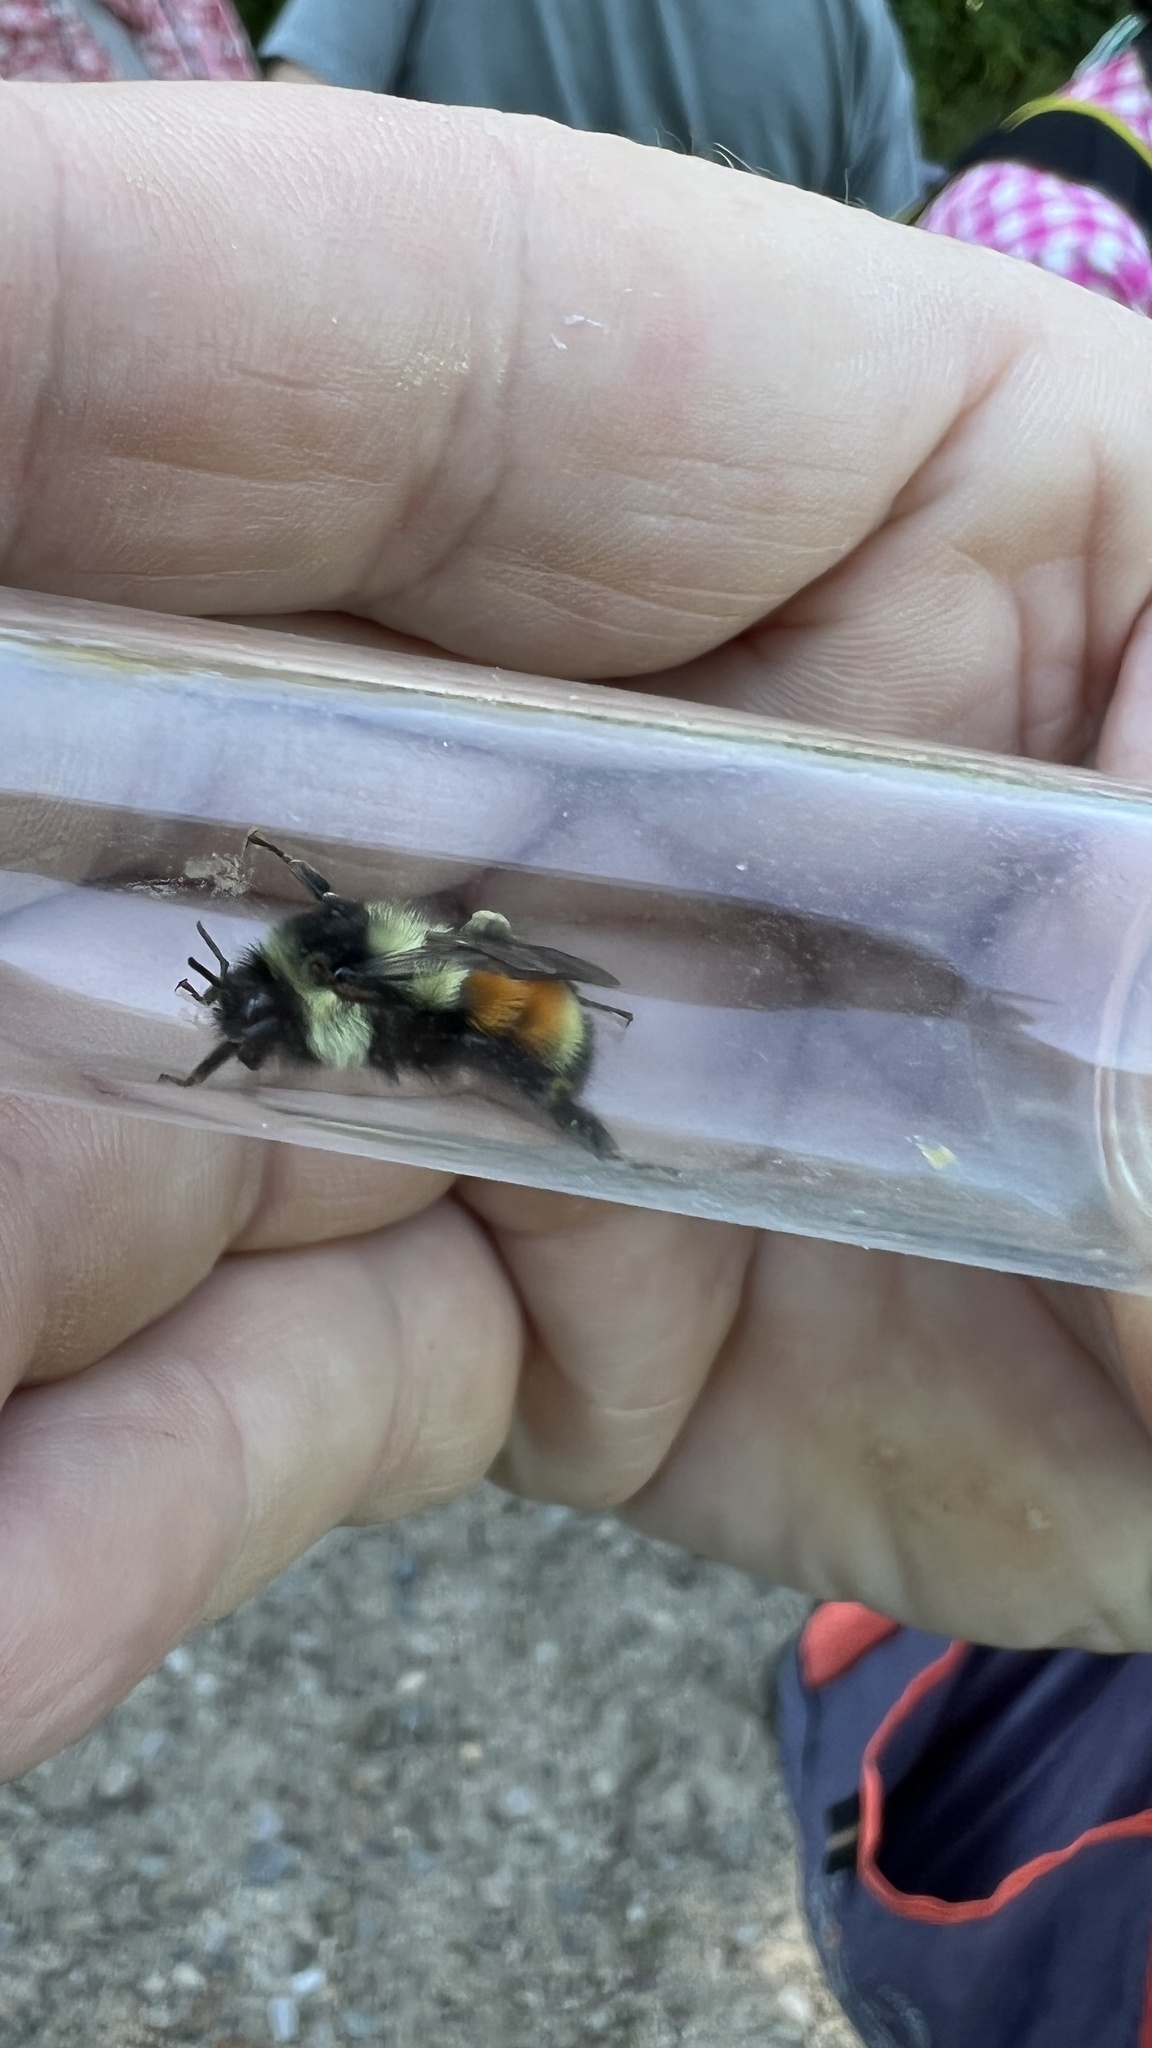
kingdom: Animalia
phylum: Arthropoda
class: Insecta
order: Hymenoptera
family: Apidae
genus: Bombus
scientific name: Bombus ternarius
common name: Tri-colored bumble bee
